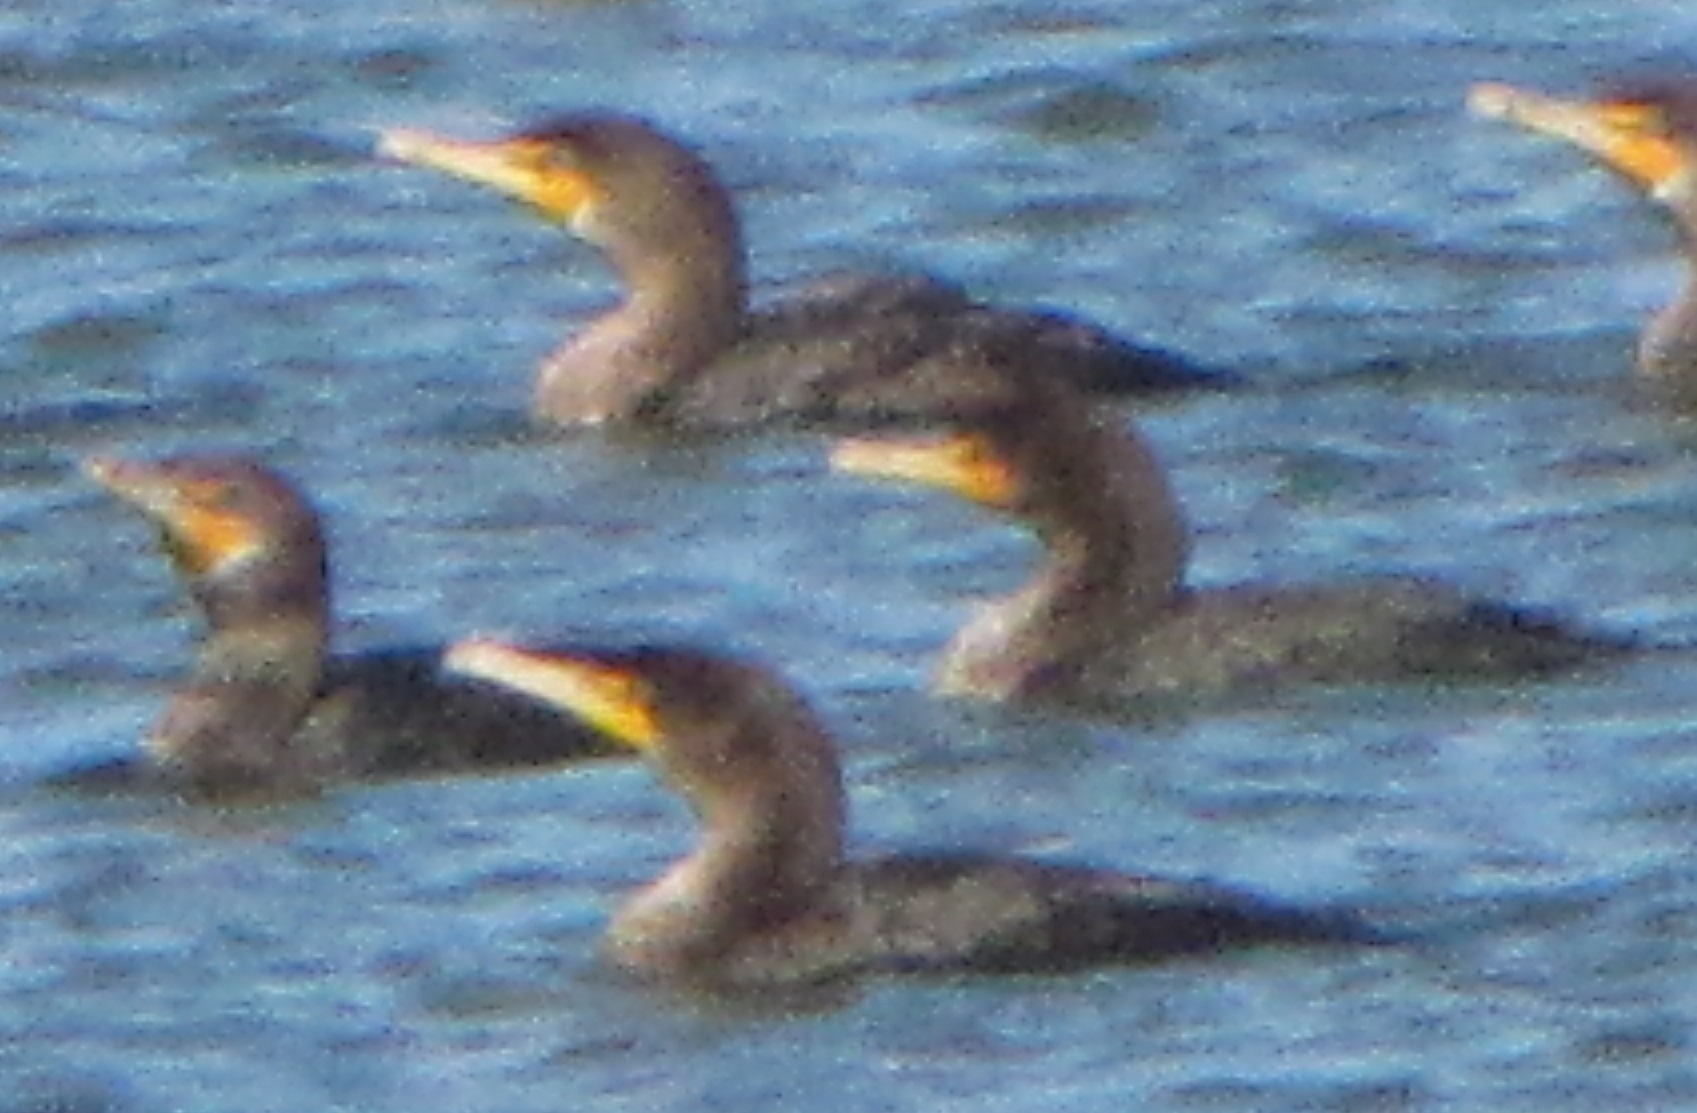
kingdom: Animalia
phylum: Chordata
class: Aves
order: Suliformes
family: Phalacrocoracidae
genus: Phalacrocorax
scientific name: Phalacrocorax auritus
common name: Double-crested cormorant
